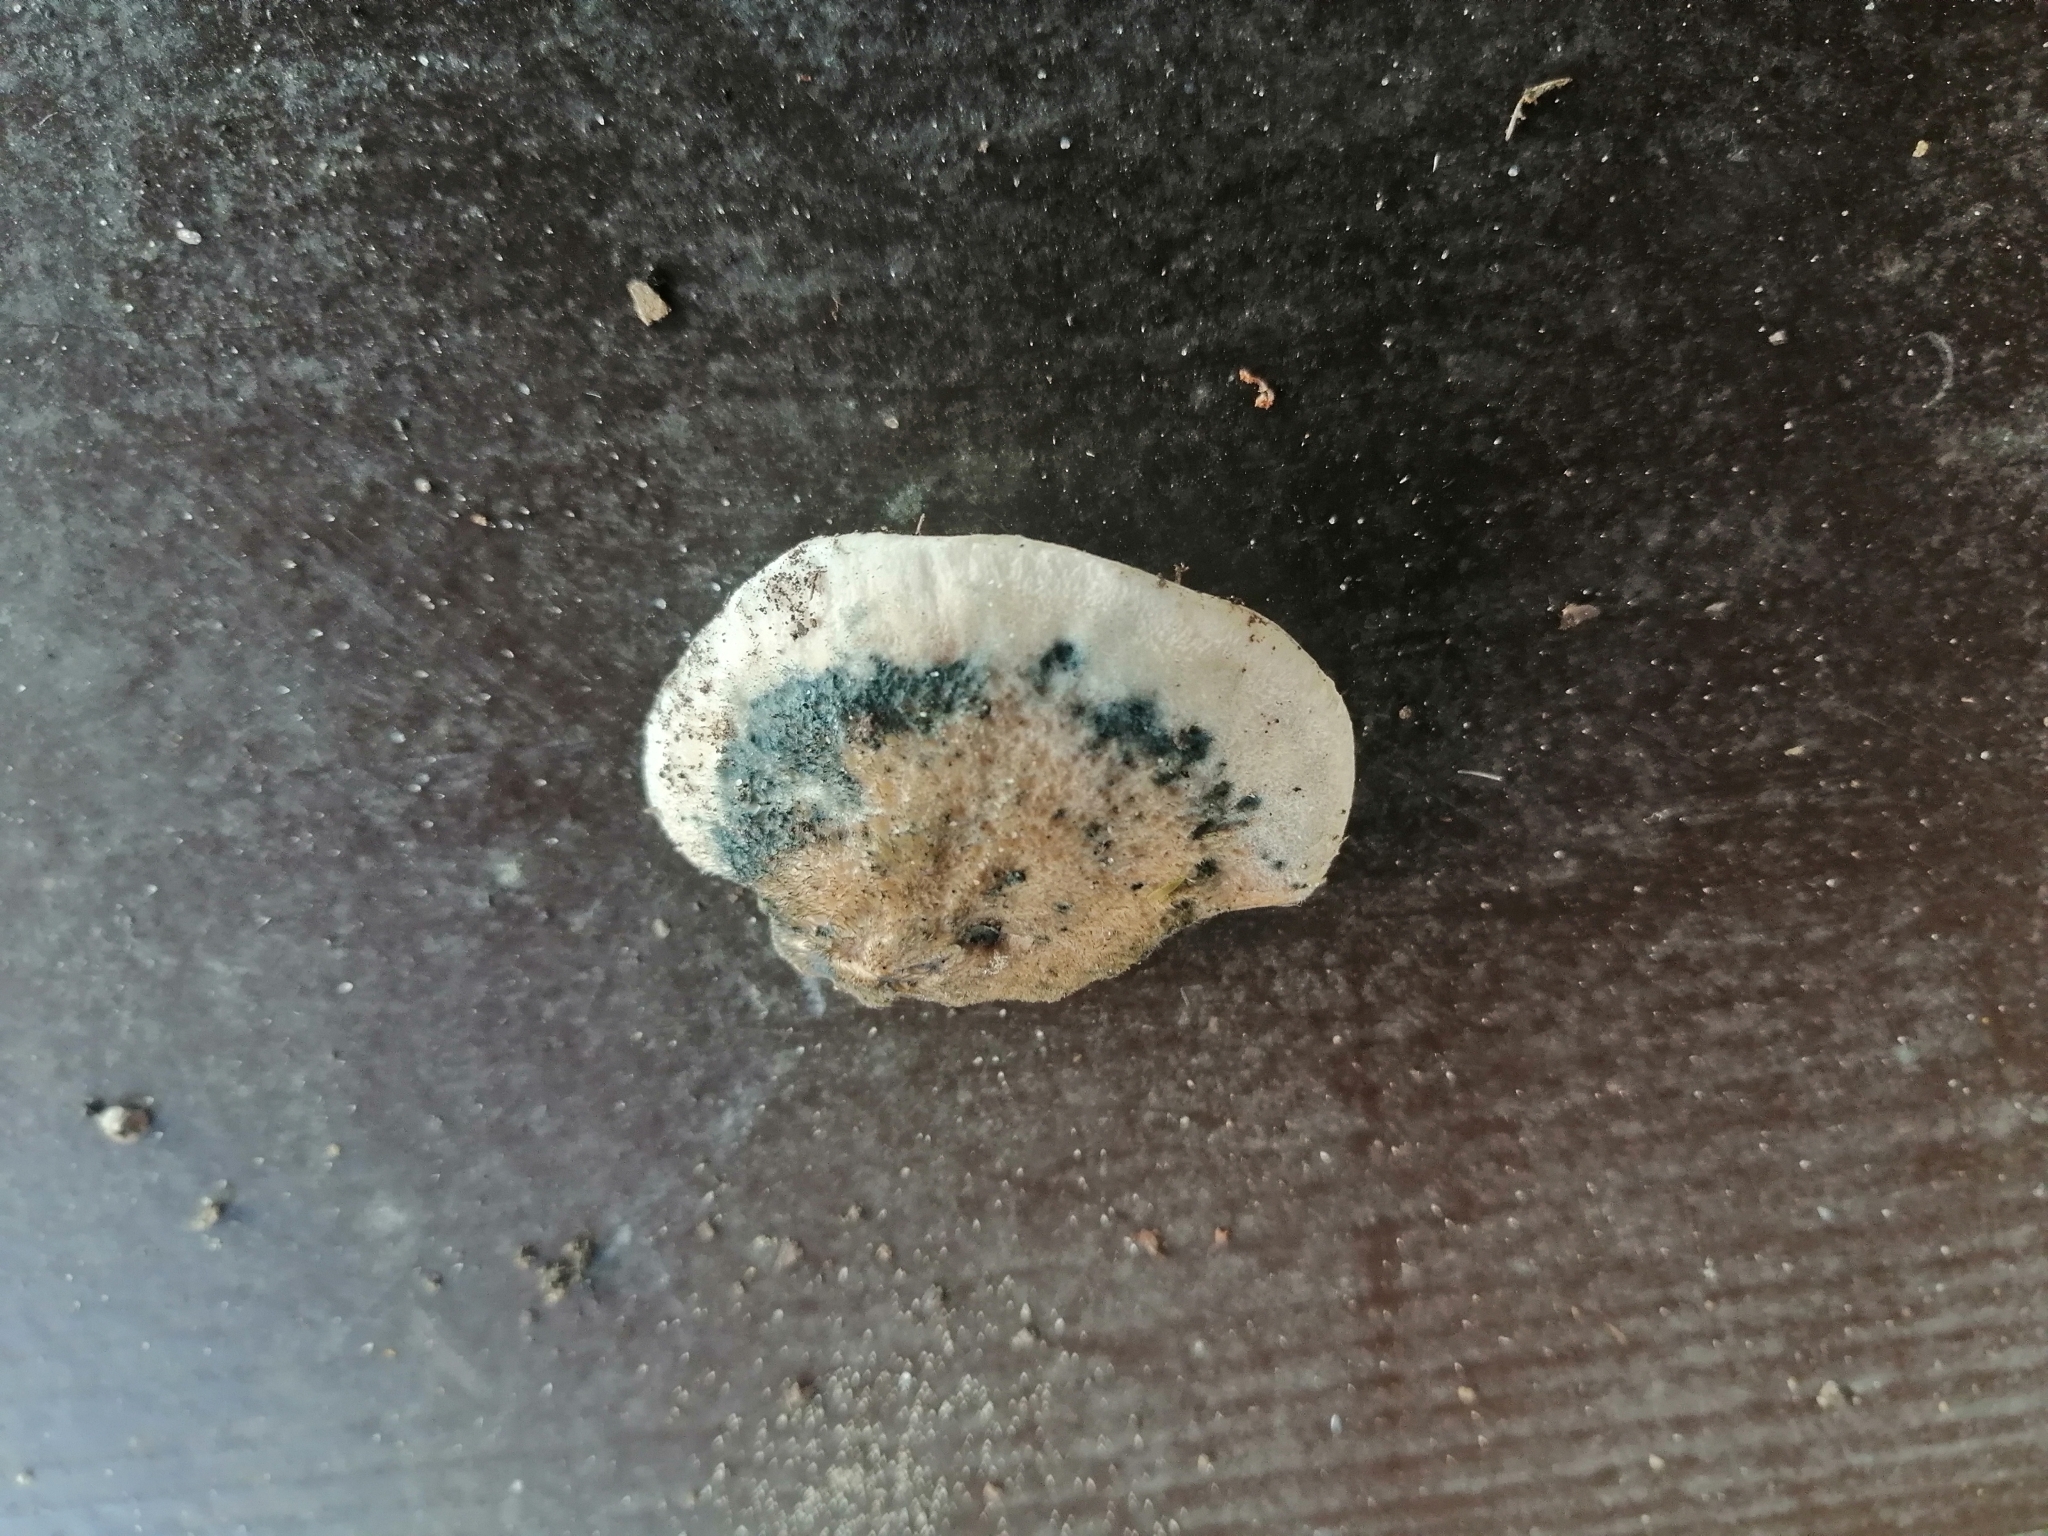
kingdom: Fungi
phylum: Basidiomycota
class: Agaricomycetes
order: Polyporales
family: Polyporaceae
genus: Cyanosporus
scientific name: Cyanosporus caesius
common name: Blue cheese polypore
